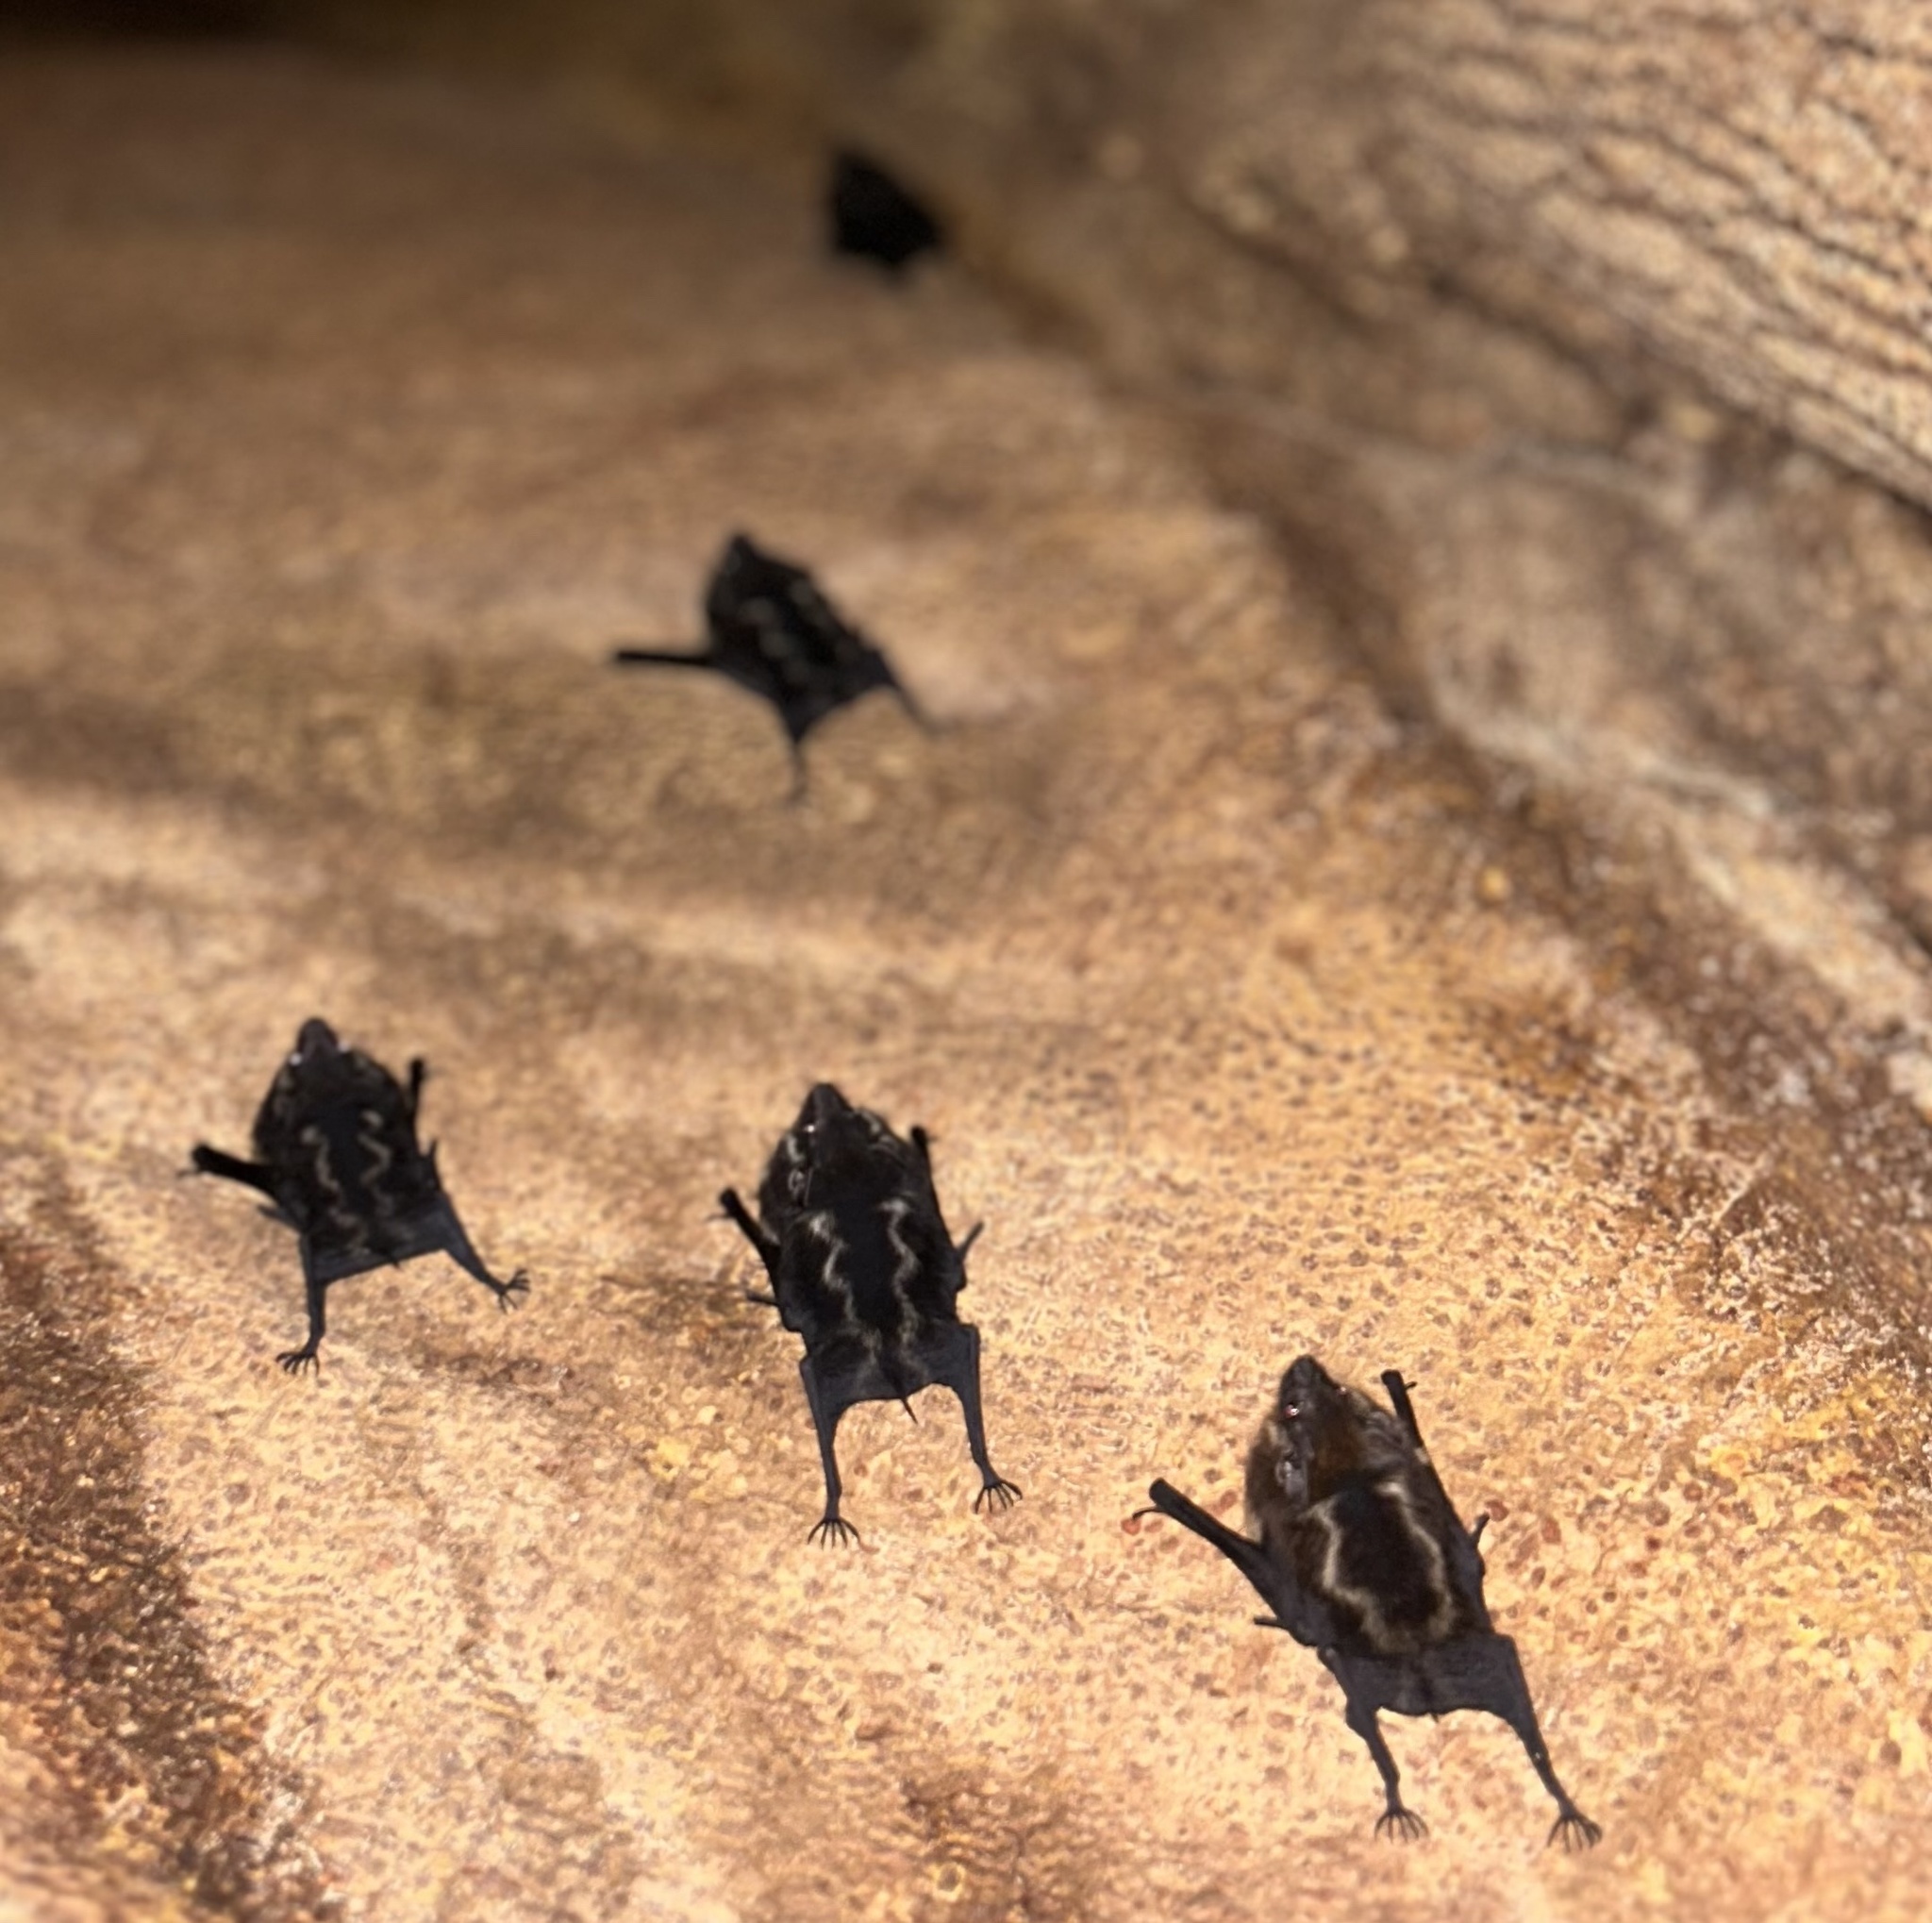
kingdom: Animalia
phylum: Chordata
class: Mammalia
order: Chiroptera
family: Emballonuridae
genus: Saccopteryx
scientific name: Saccopteryx bilineata
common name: Greater sac-winged bat
